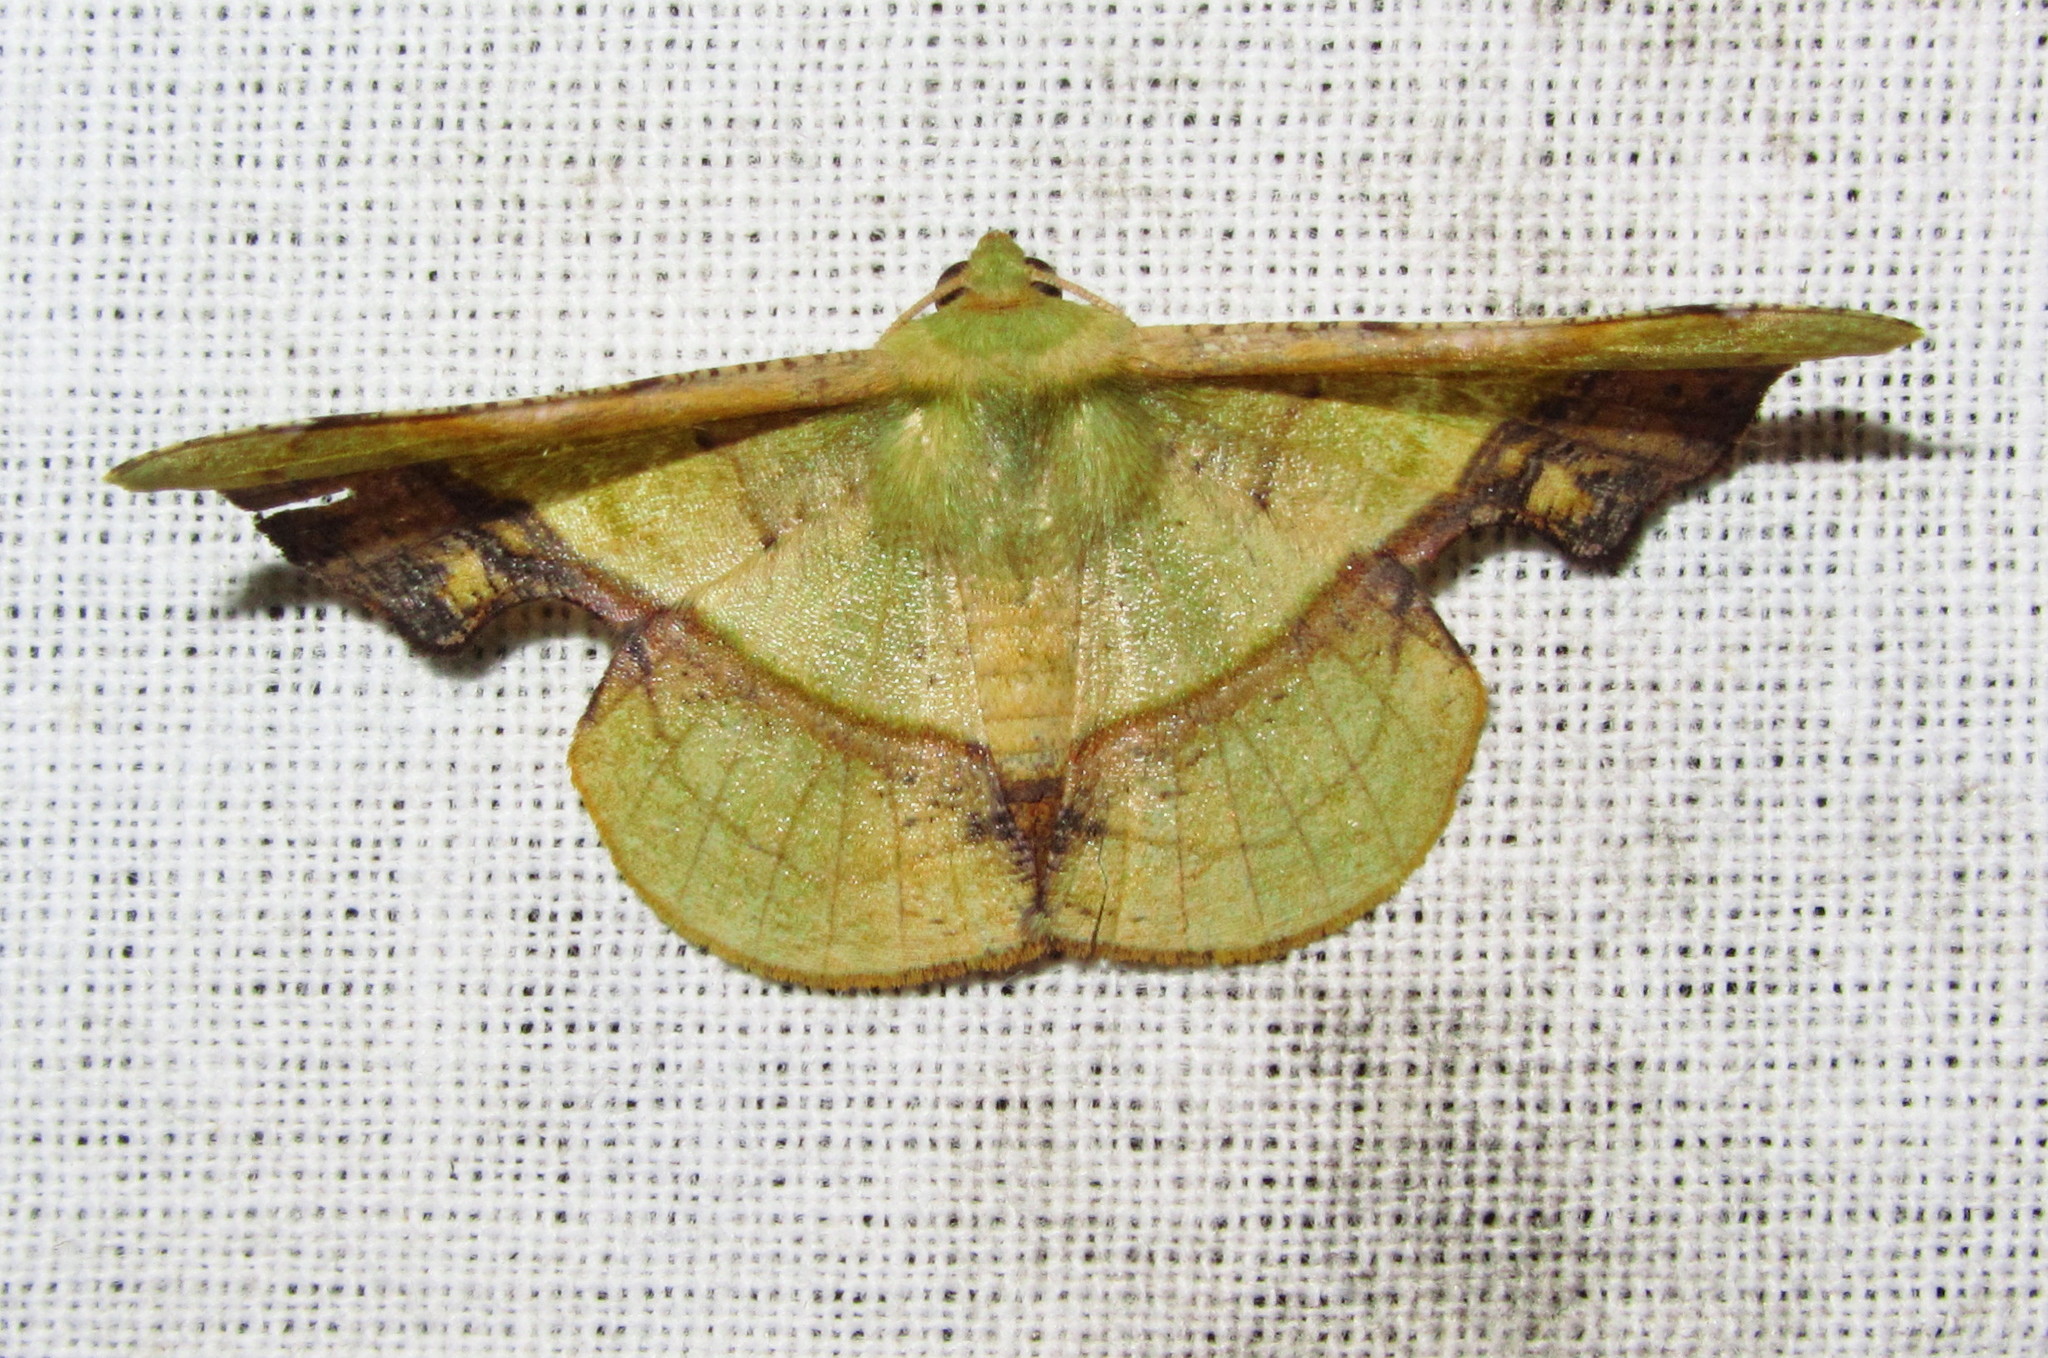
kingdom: Animalia
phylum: Arthropoda
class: Insecta
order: Lepidoptera
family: Geometridae
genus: Fascellina
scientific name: Fascellina plagiata
